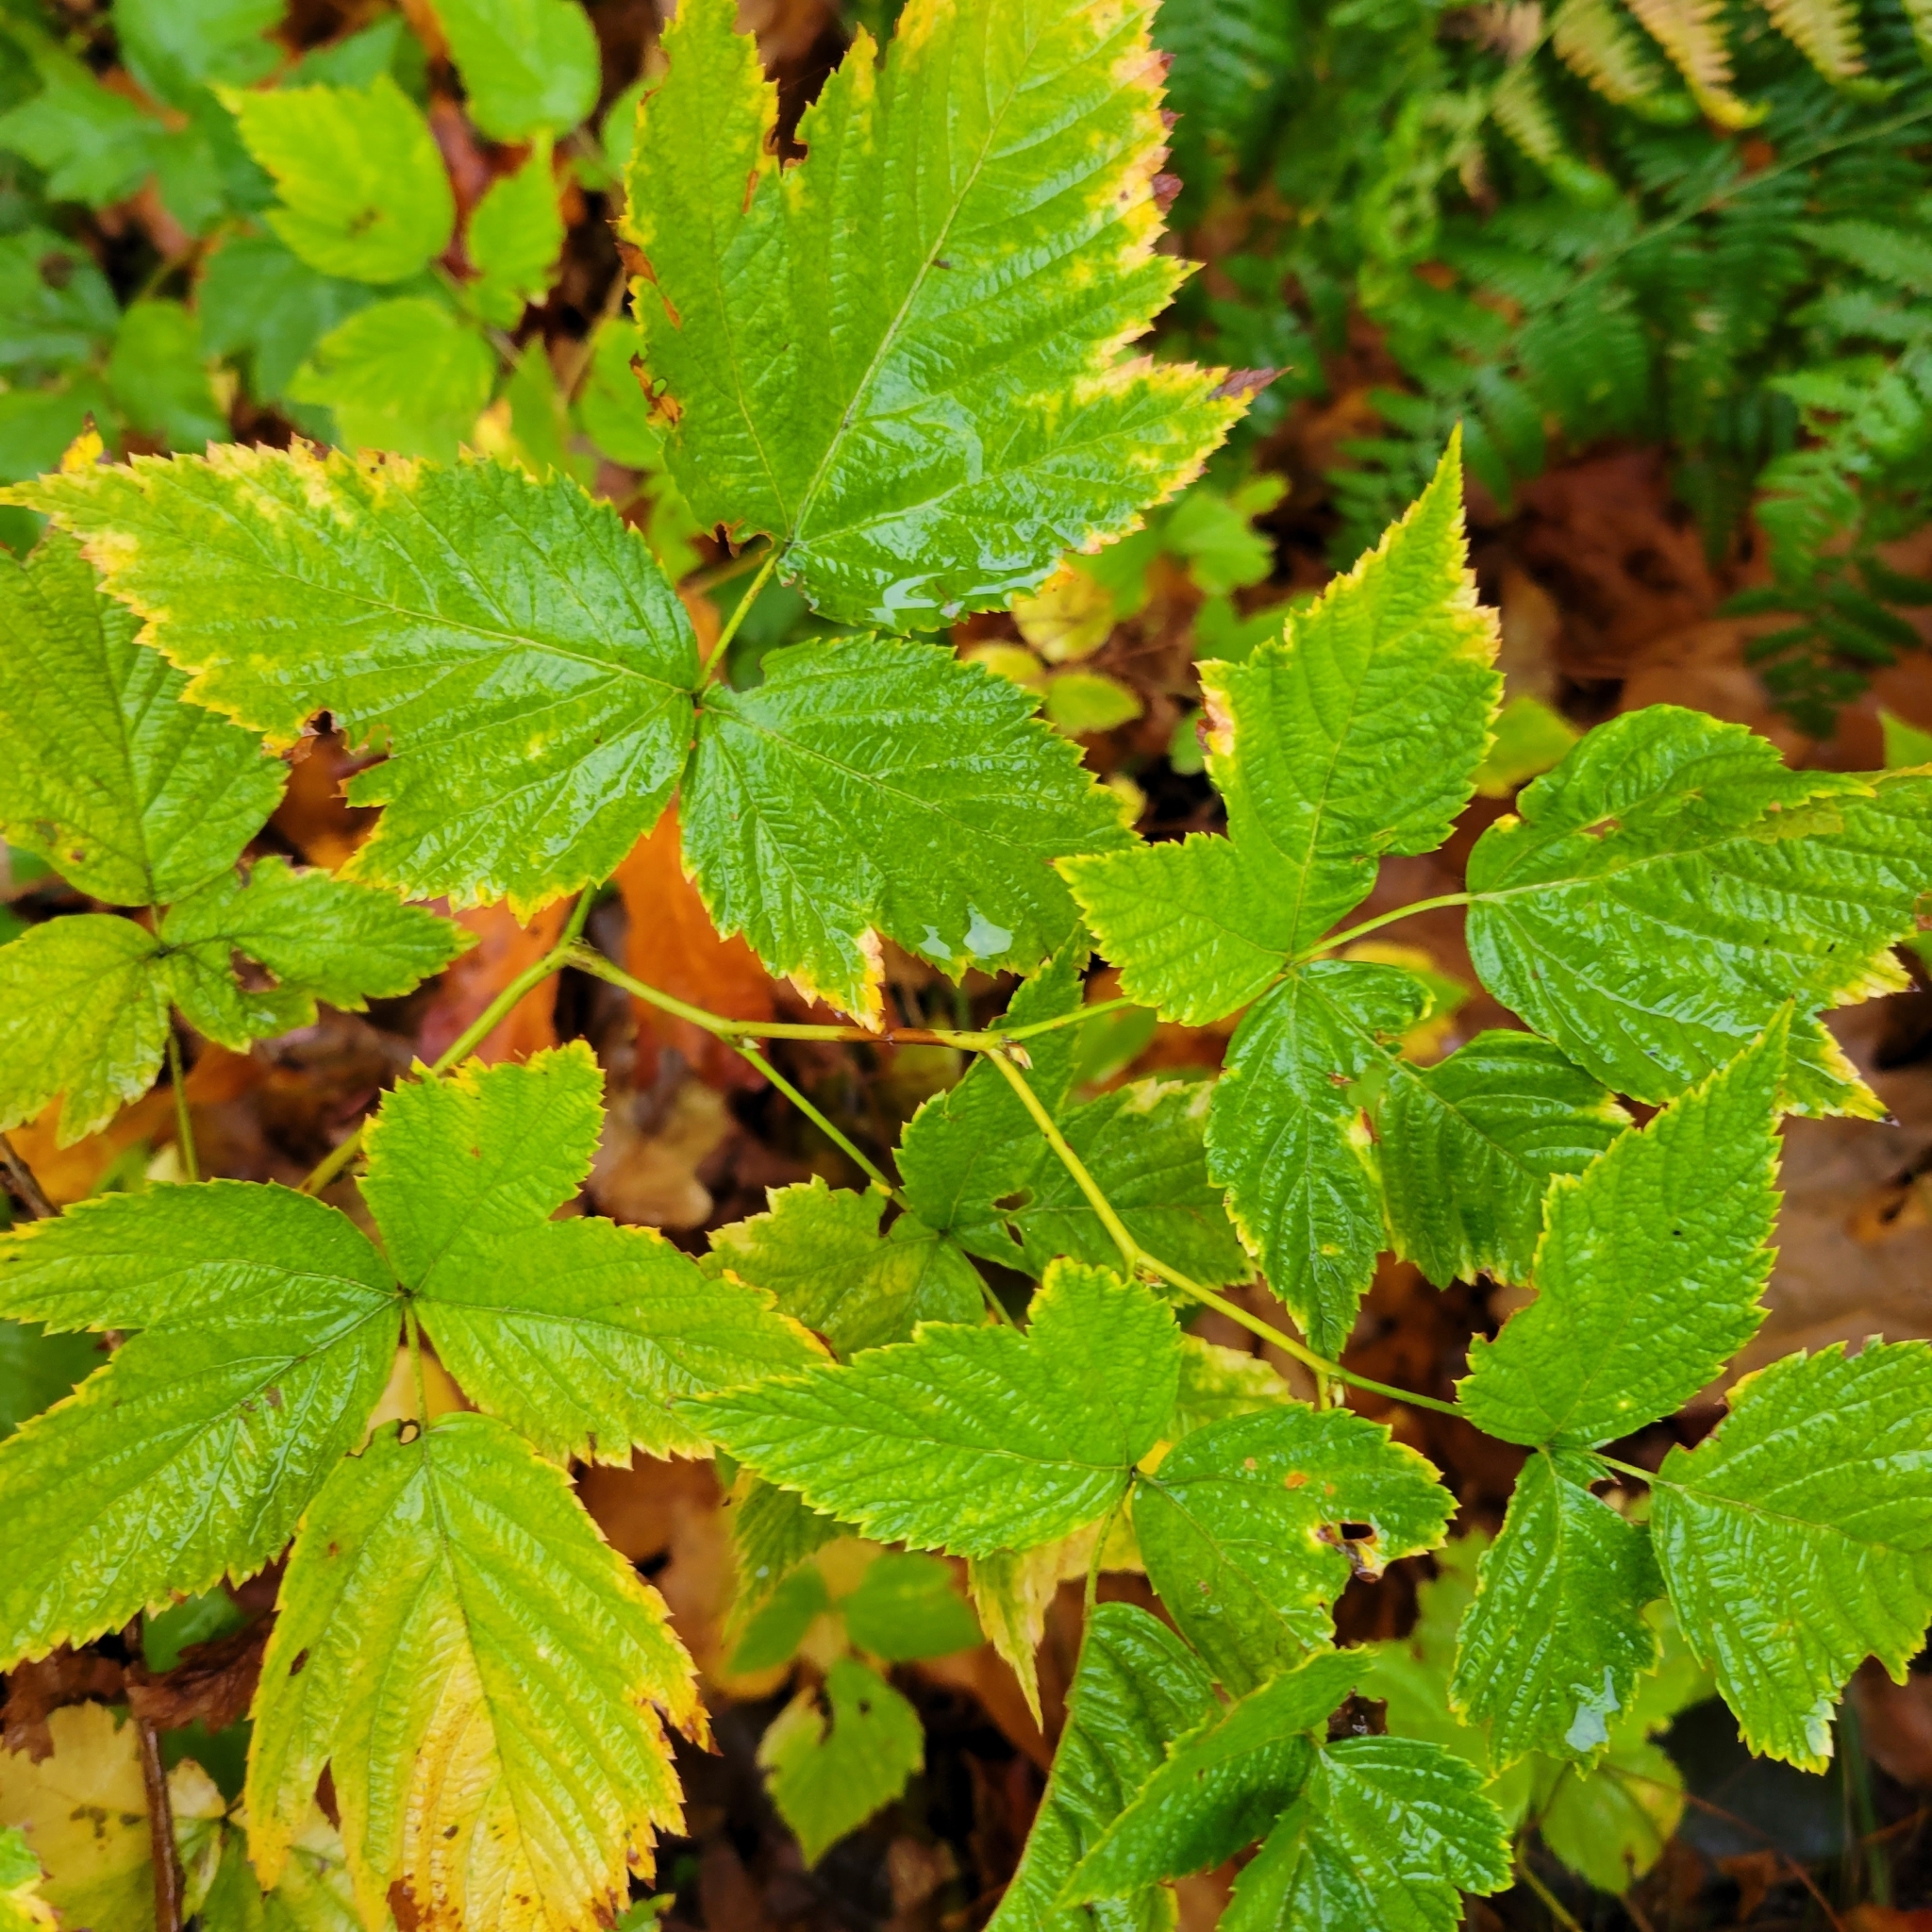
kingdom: Plantae
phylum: Tracheophyta
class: Magnoliopsida
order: Rosales
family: Rosaceae
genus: Rubus
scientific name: Rubus spectabilis
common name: Salmonberry
